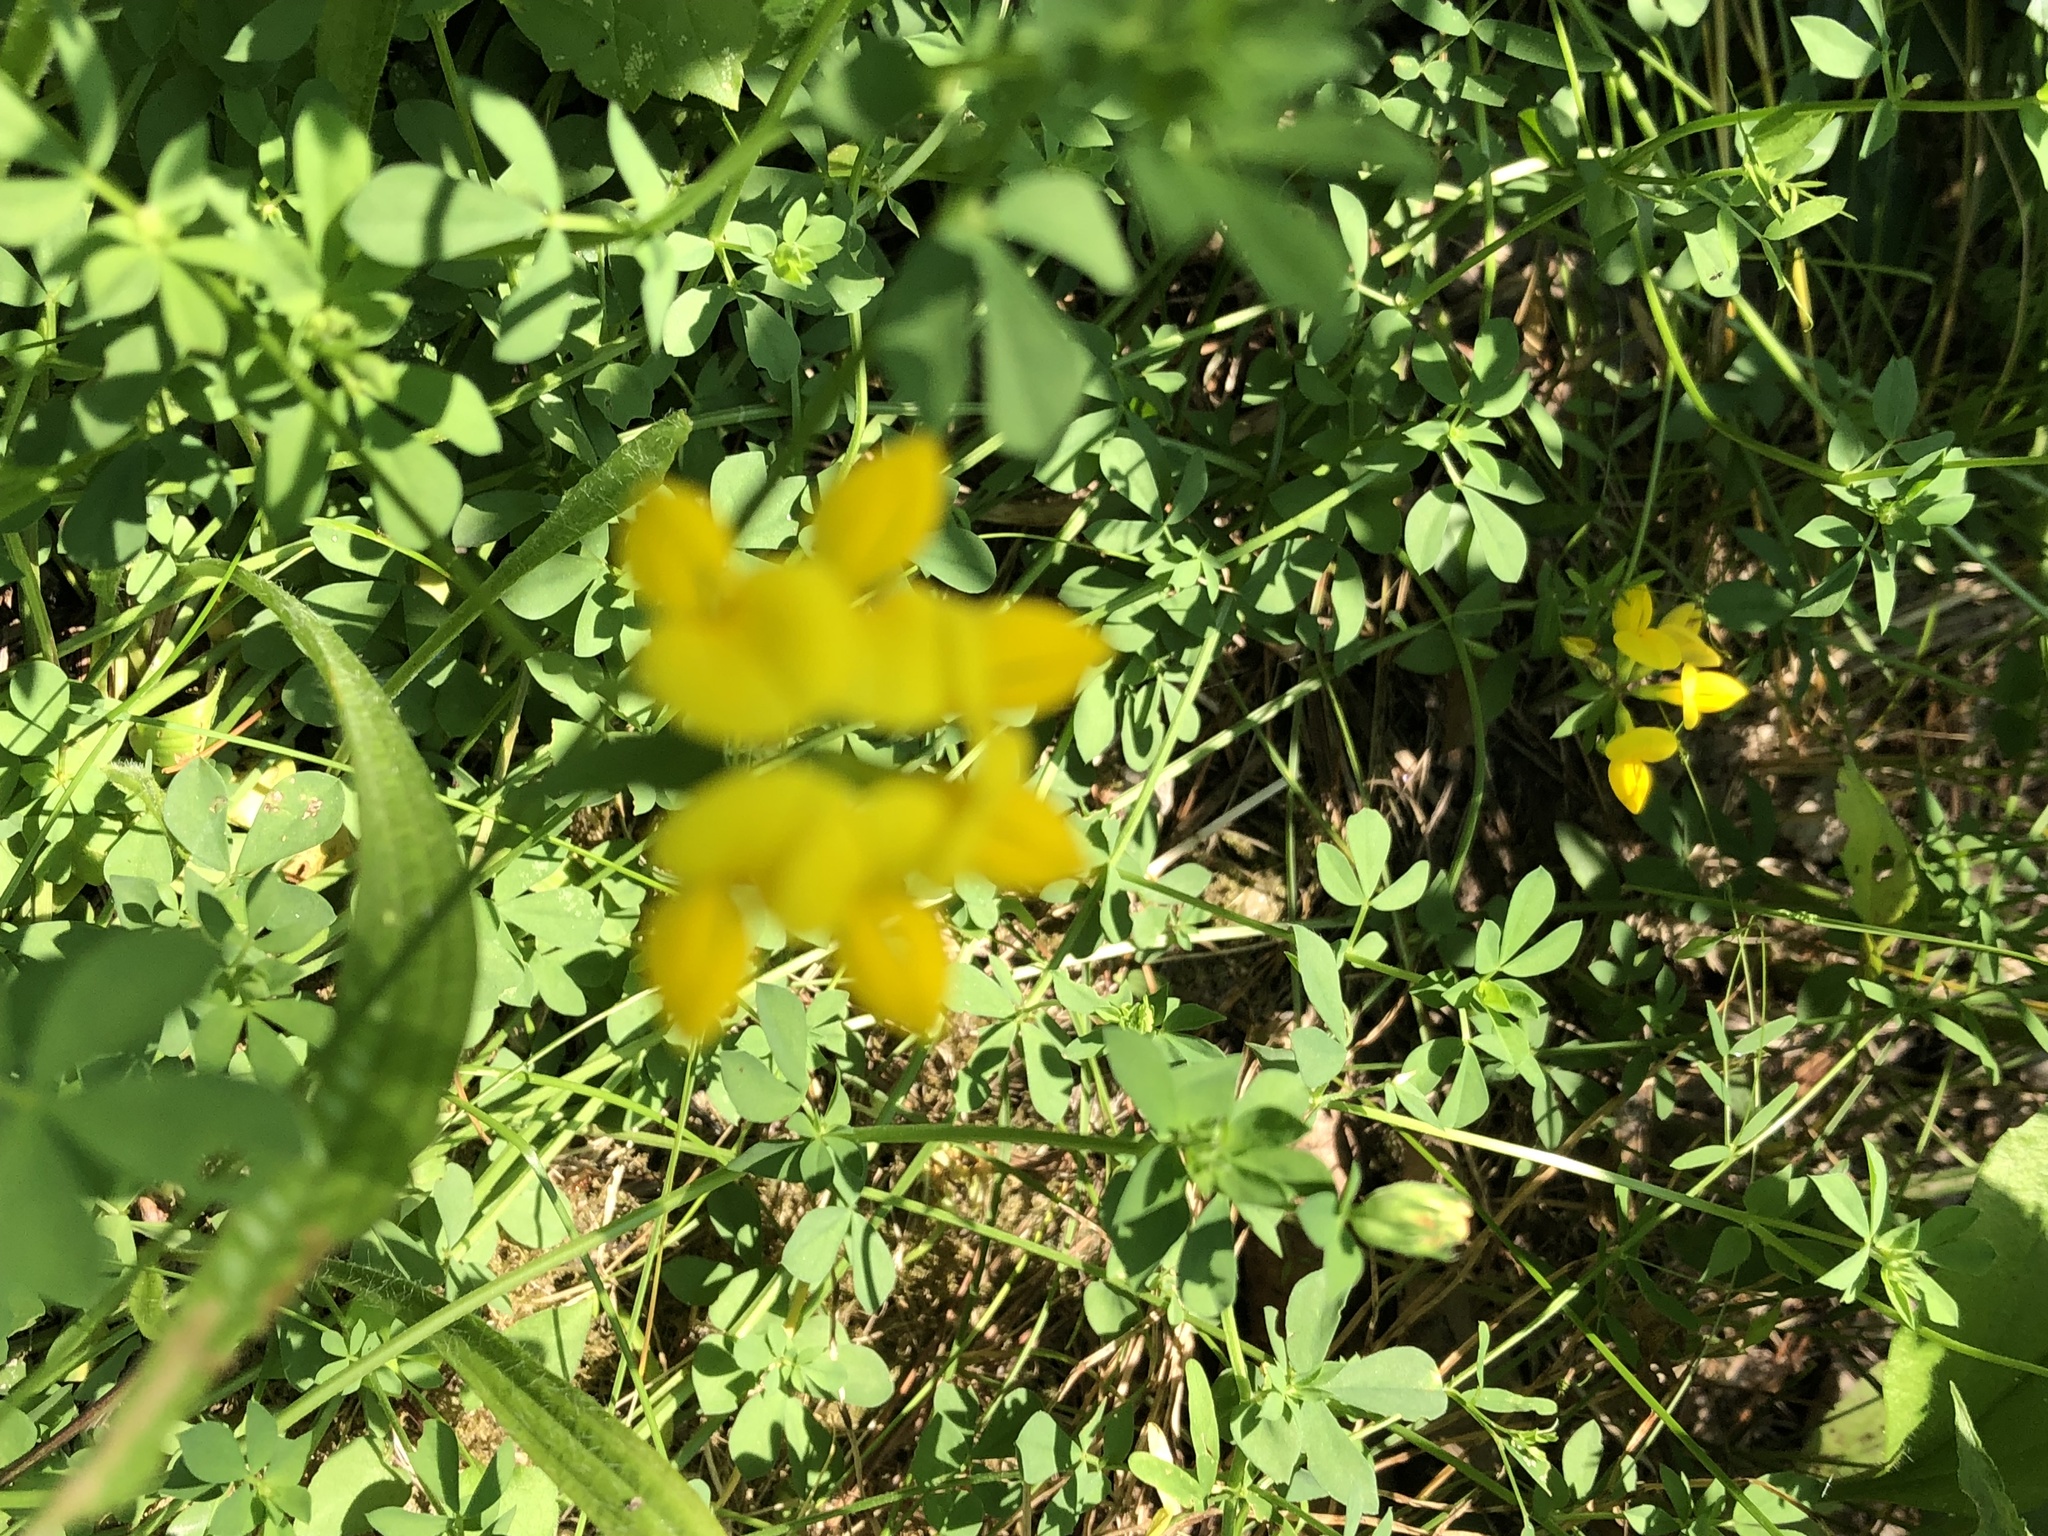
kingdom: Plantae
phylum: Tracheophyta
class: Magnoliopsida
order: Fabales
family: Fabaceae
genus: Lotus
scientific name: Lotus corniculatus
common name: Common bird's-foot-trefoil
